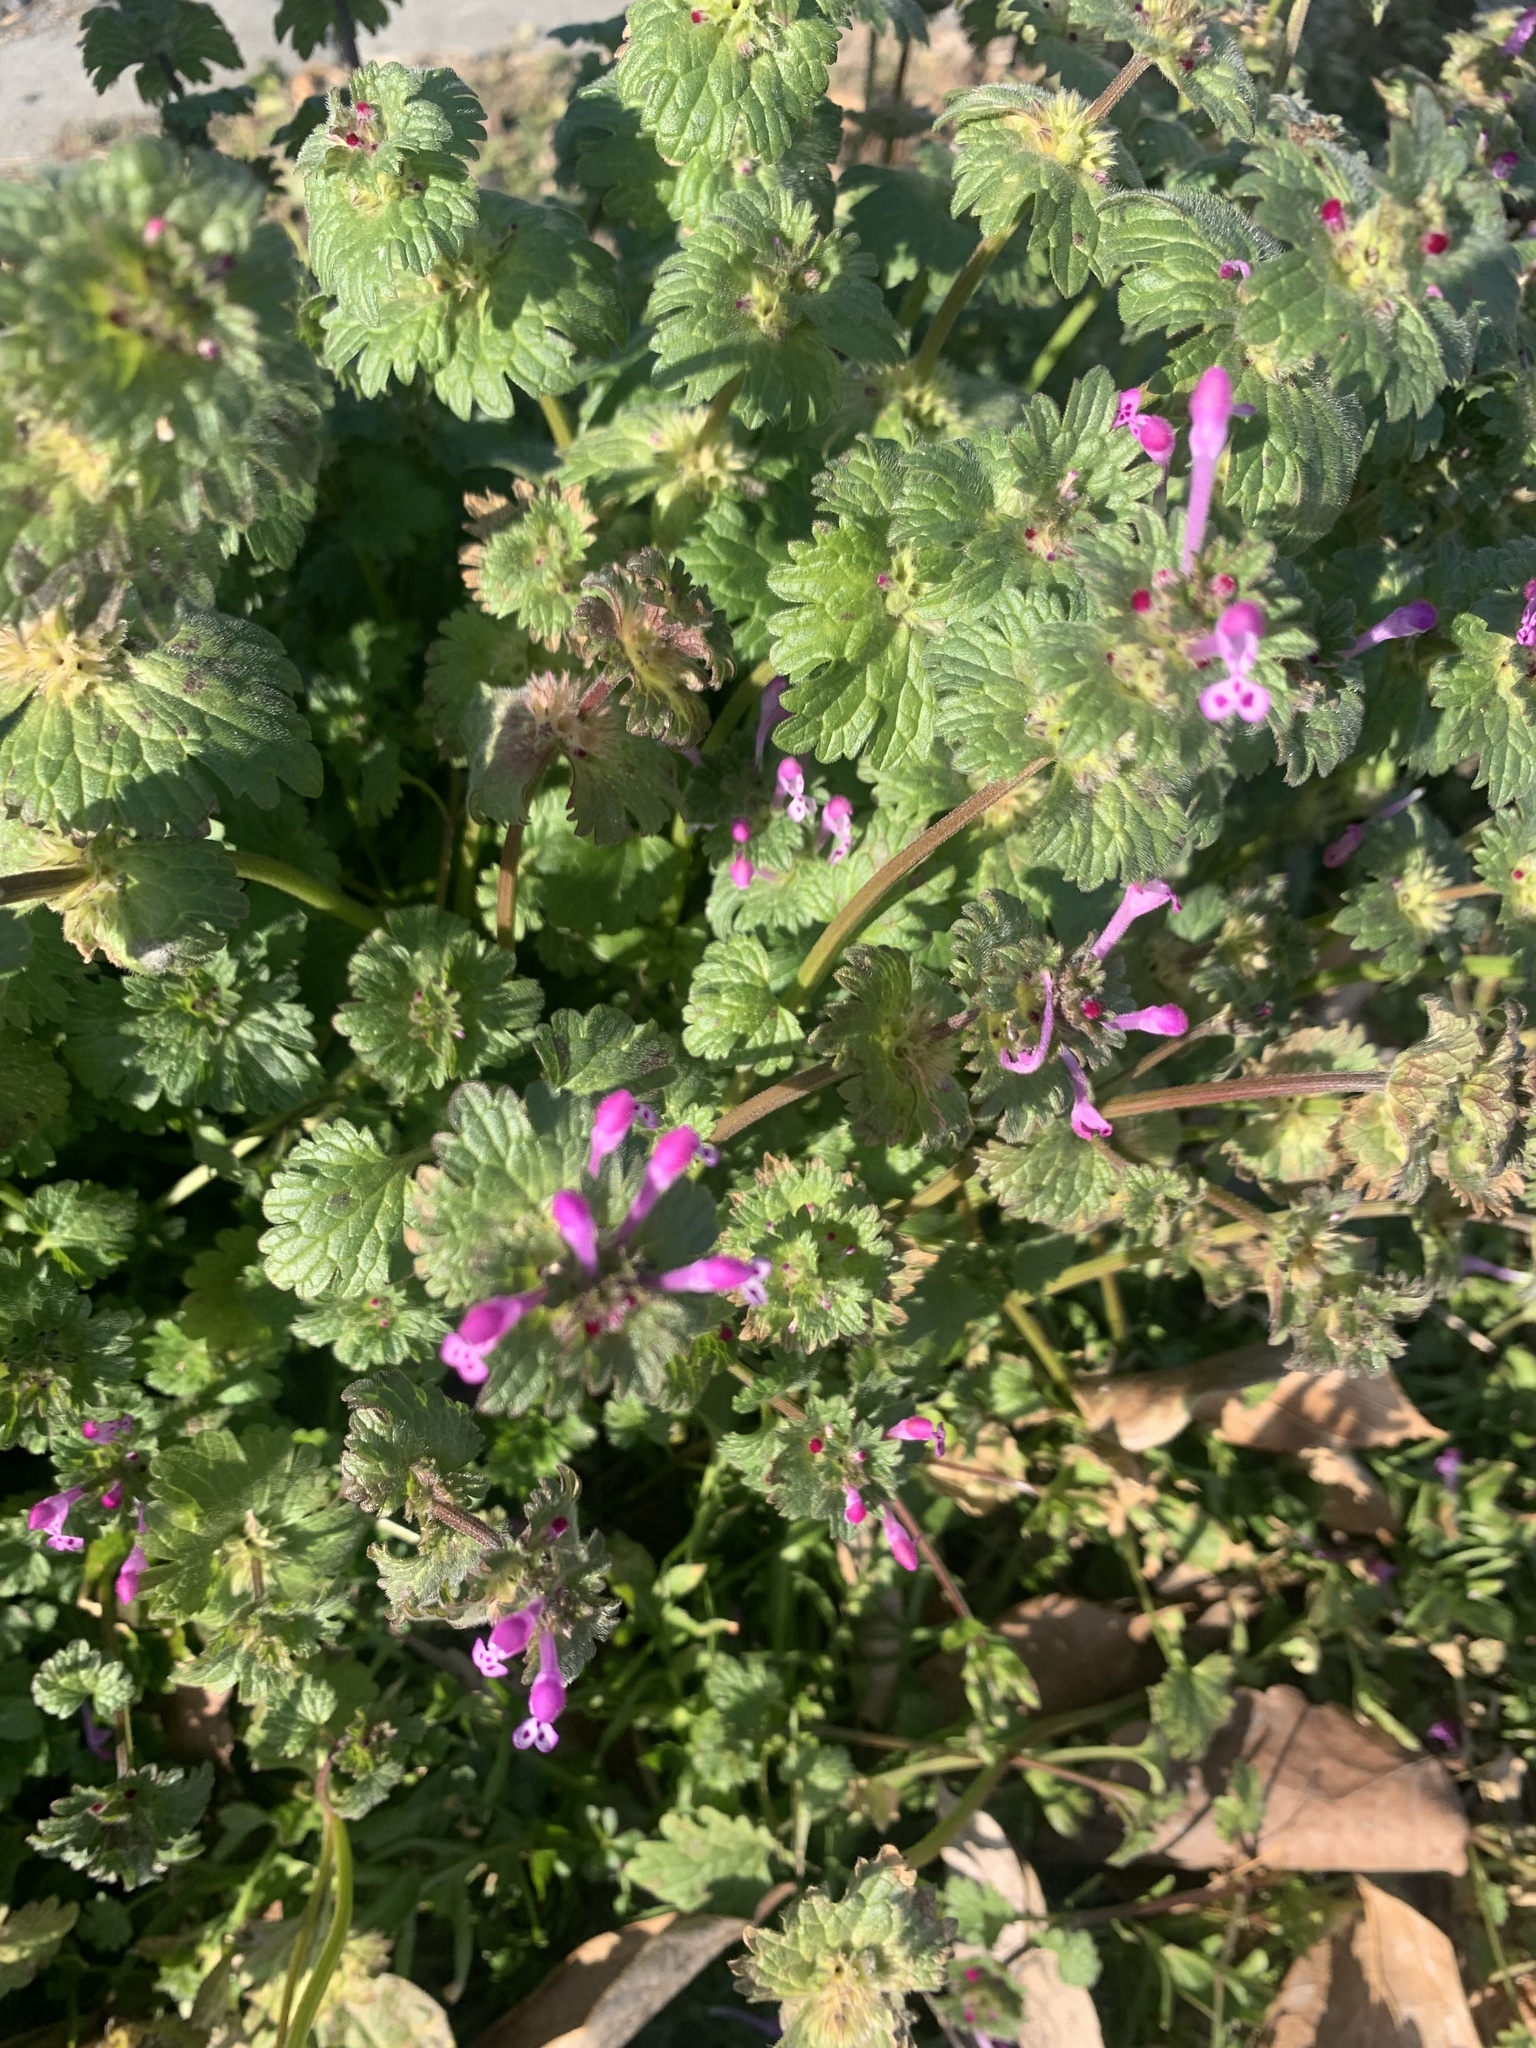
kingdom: Plantae
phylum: Tracheophyta
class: Magnoliopsida
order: Lamiales
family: Lamiaceae
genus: Lamium
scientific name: Lamium amplexicaule
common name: Henbit dead-nettle
